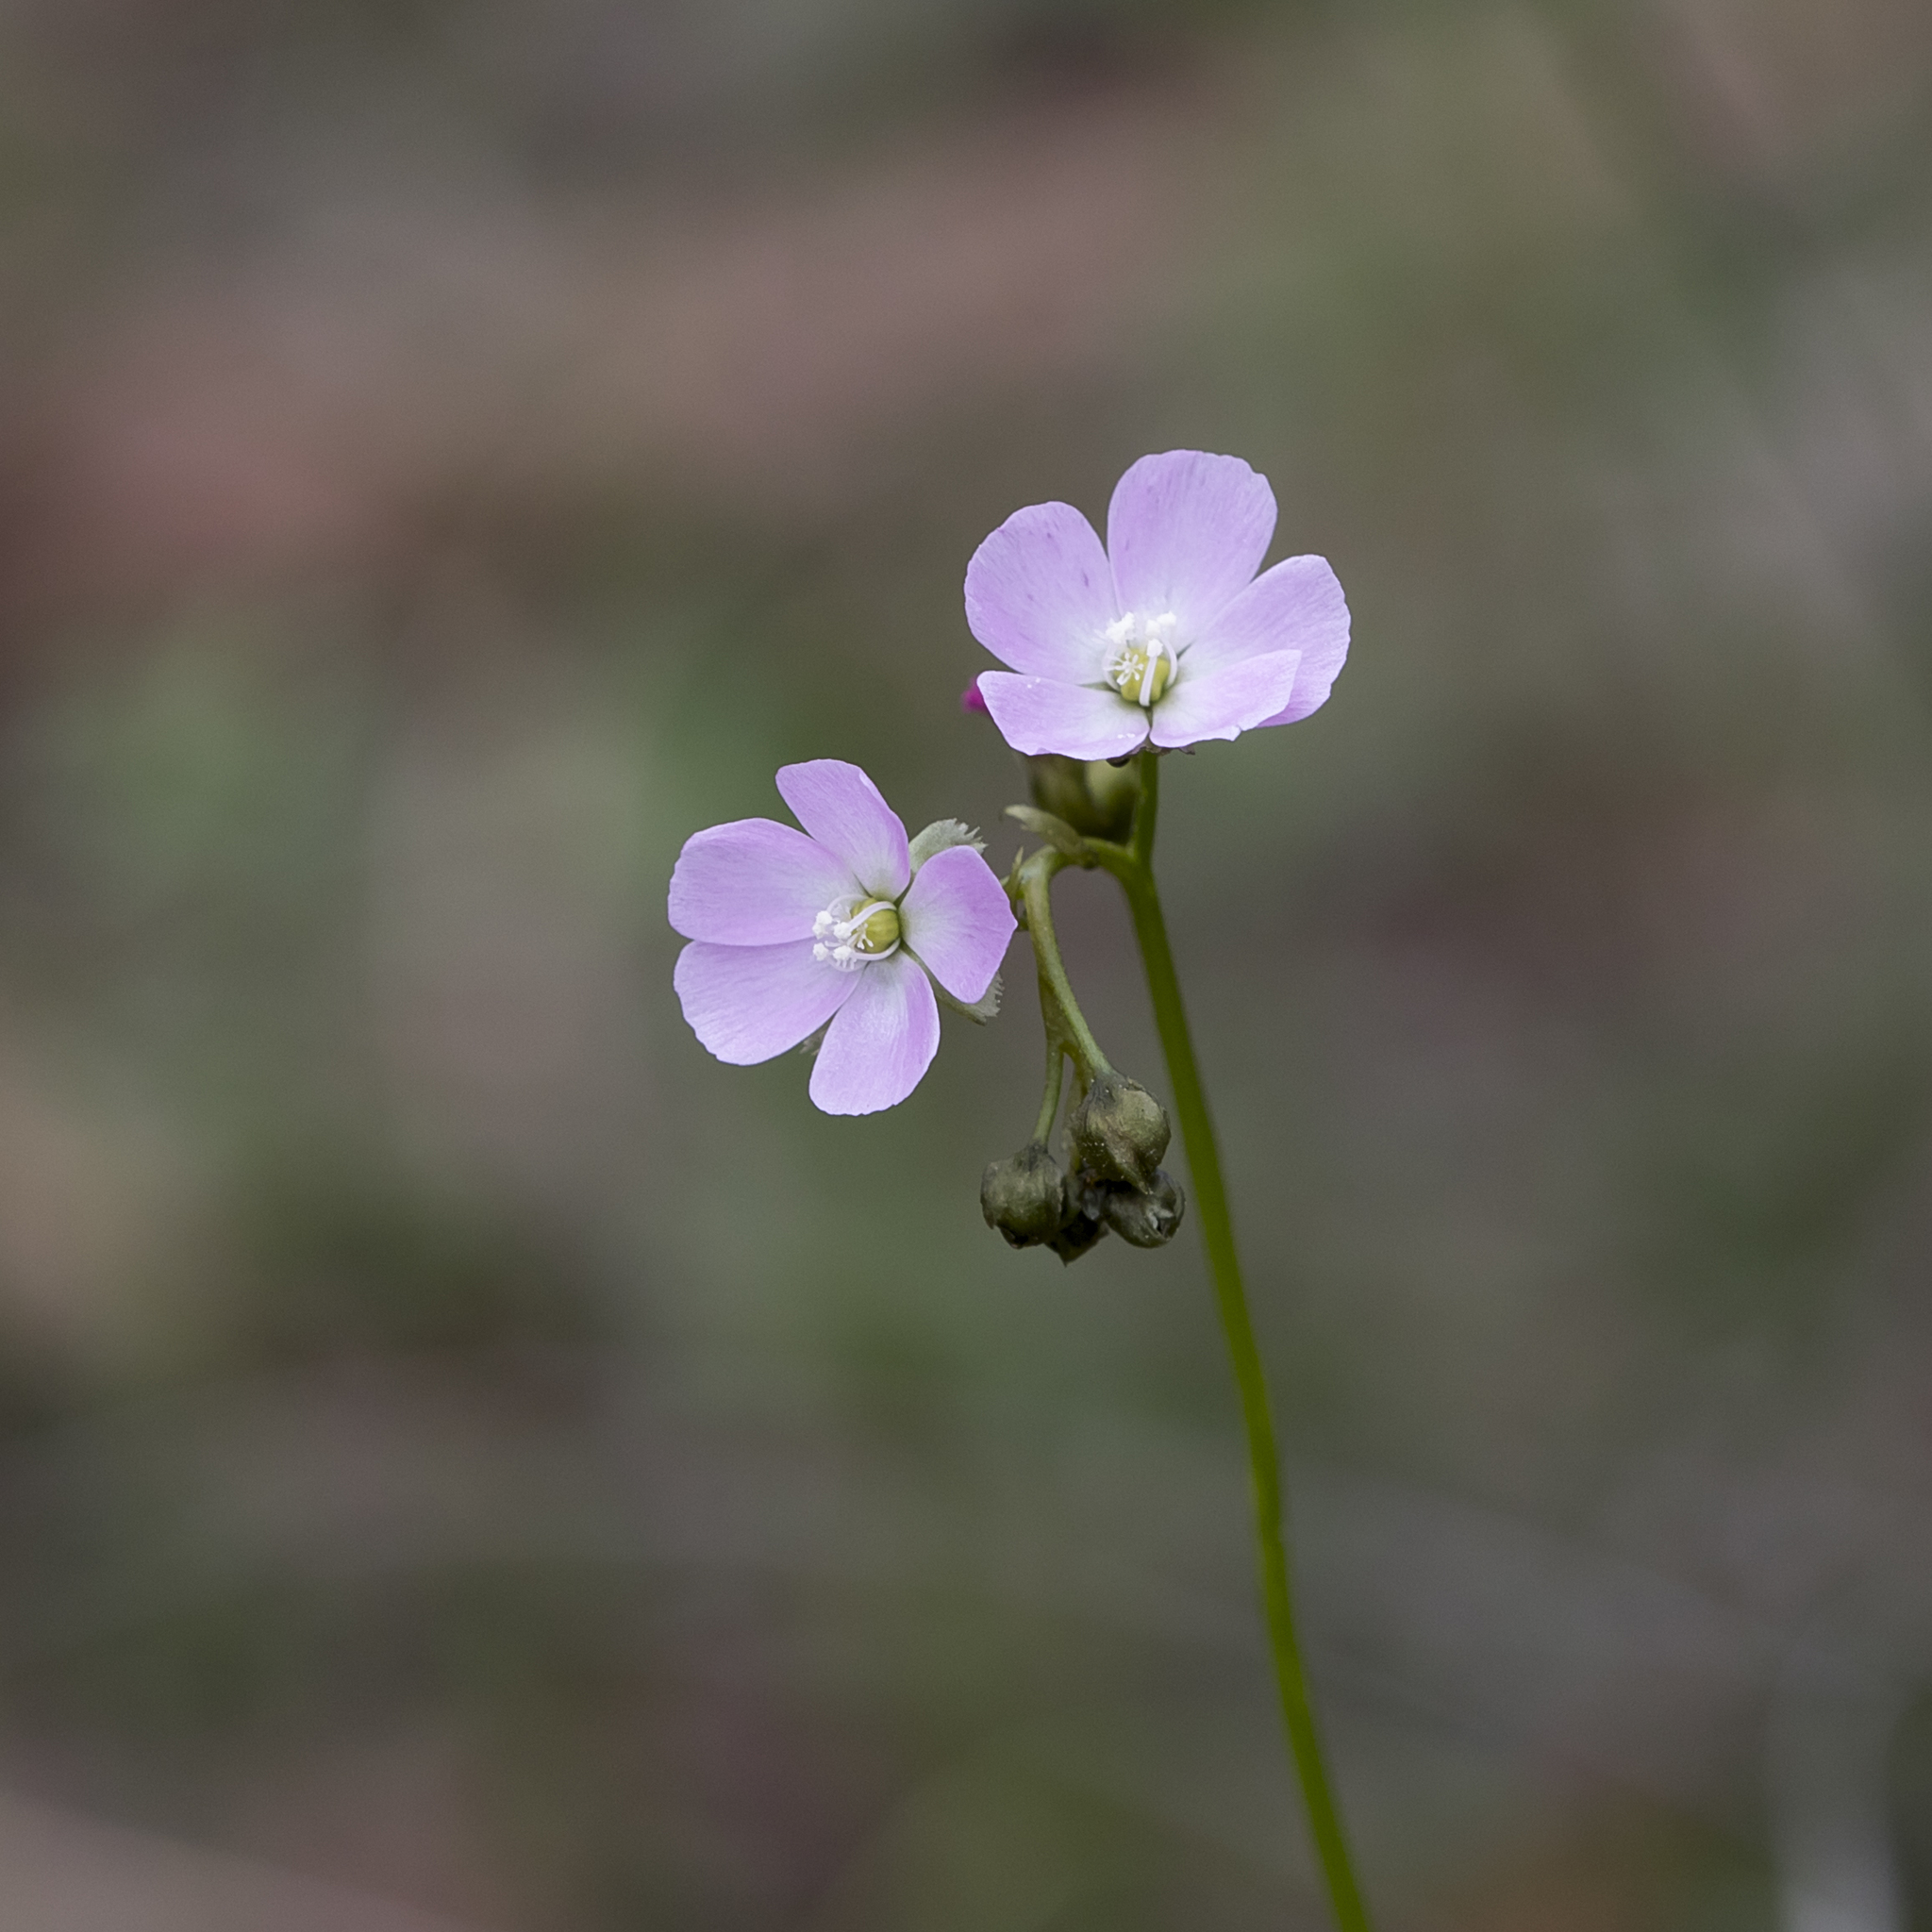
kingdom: Plantae
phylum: Tracheophyta
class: Magnoliopsida
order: Caryophyllales
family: Droseraceae
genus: Drosera
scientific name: Drosera peltata
